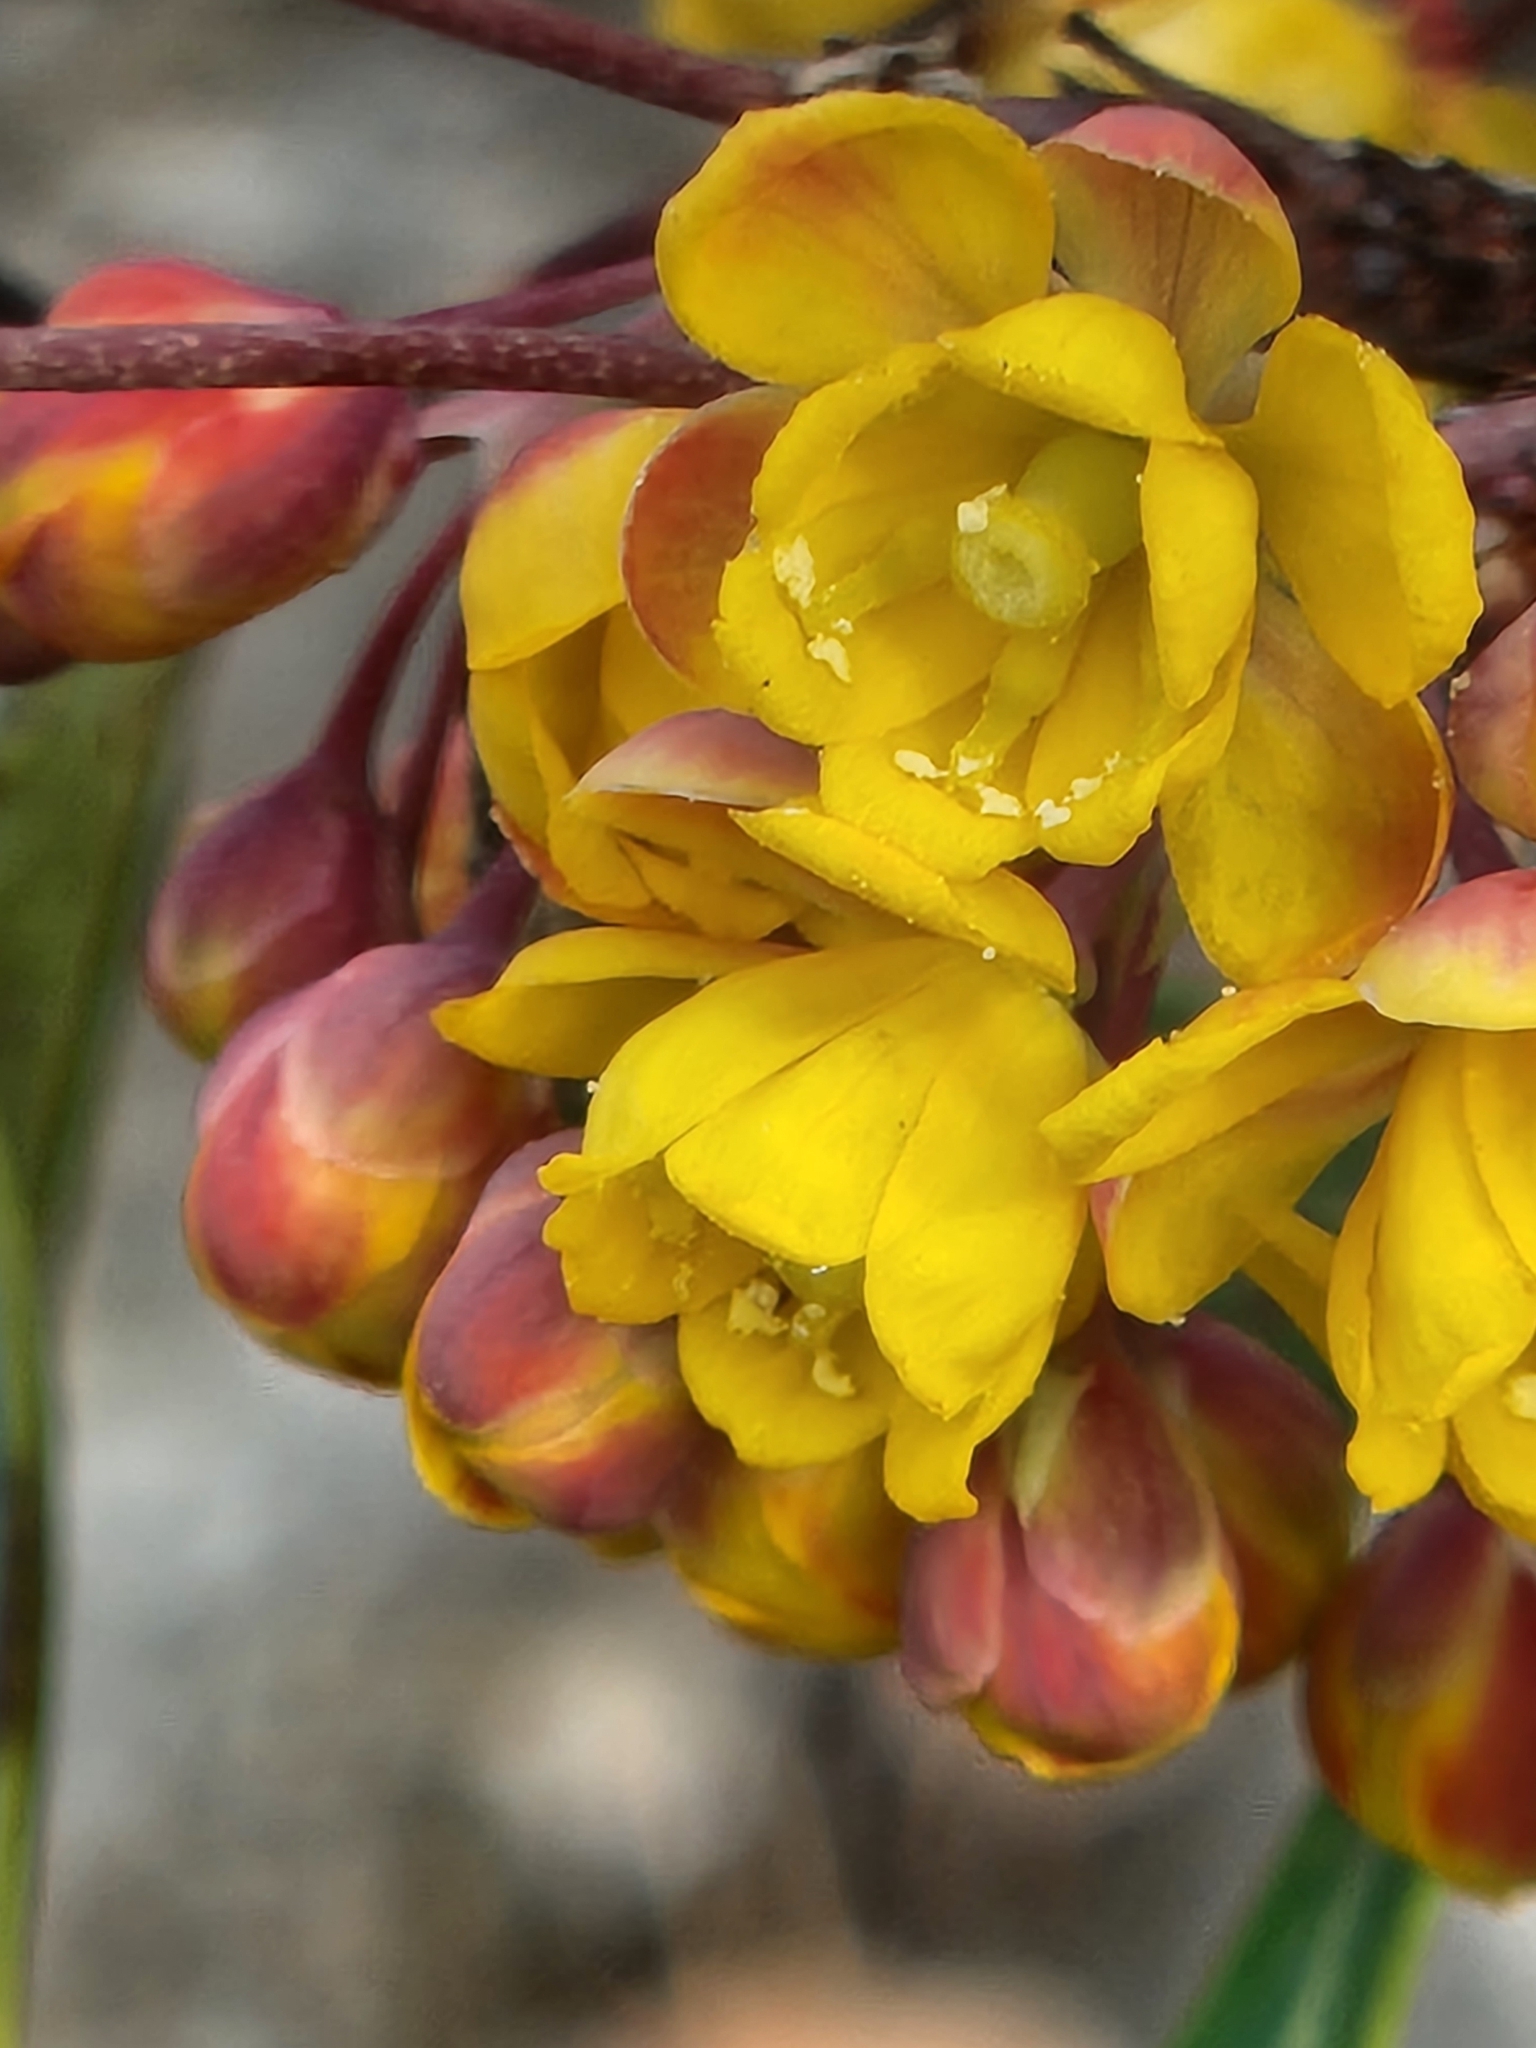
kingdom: Plantae
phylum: Tracheophyta
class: Magnoliopsida
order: Ranunculales
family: Berberidaceae
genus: Alloberberis
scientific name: Alloberberis trifoliolata
